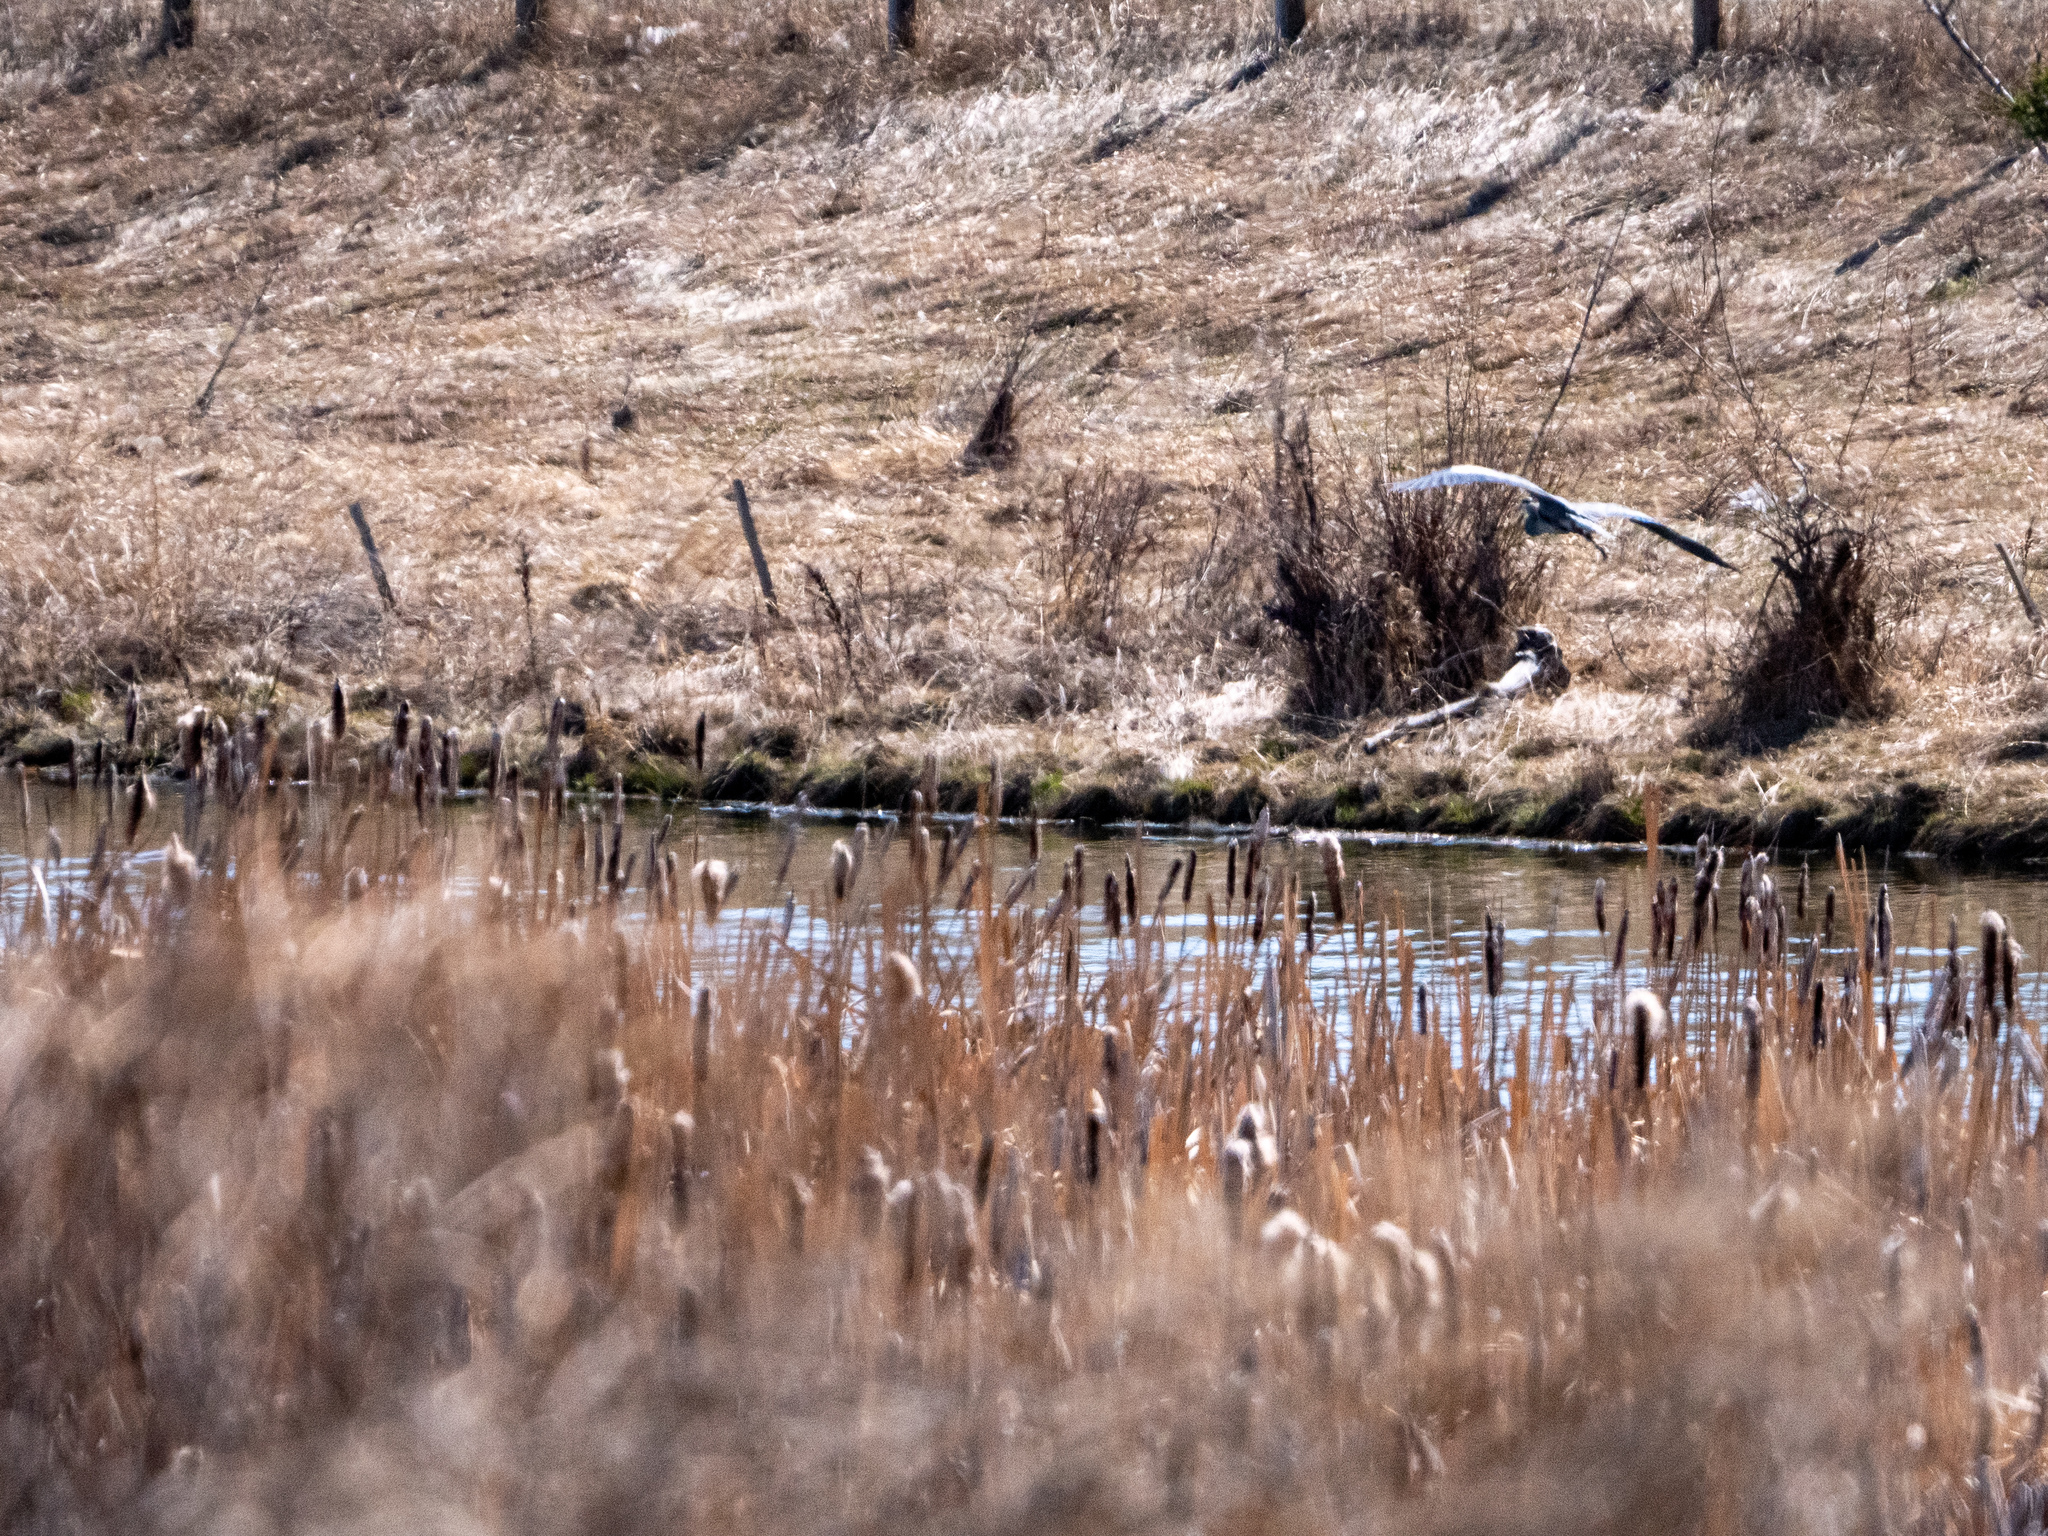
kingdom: Animalia
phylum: Chordata
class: Aves
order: Pelecaniformes
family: Ardeidae
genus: Ardea
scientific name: Ardea herodias
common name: Great blue heron
